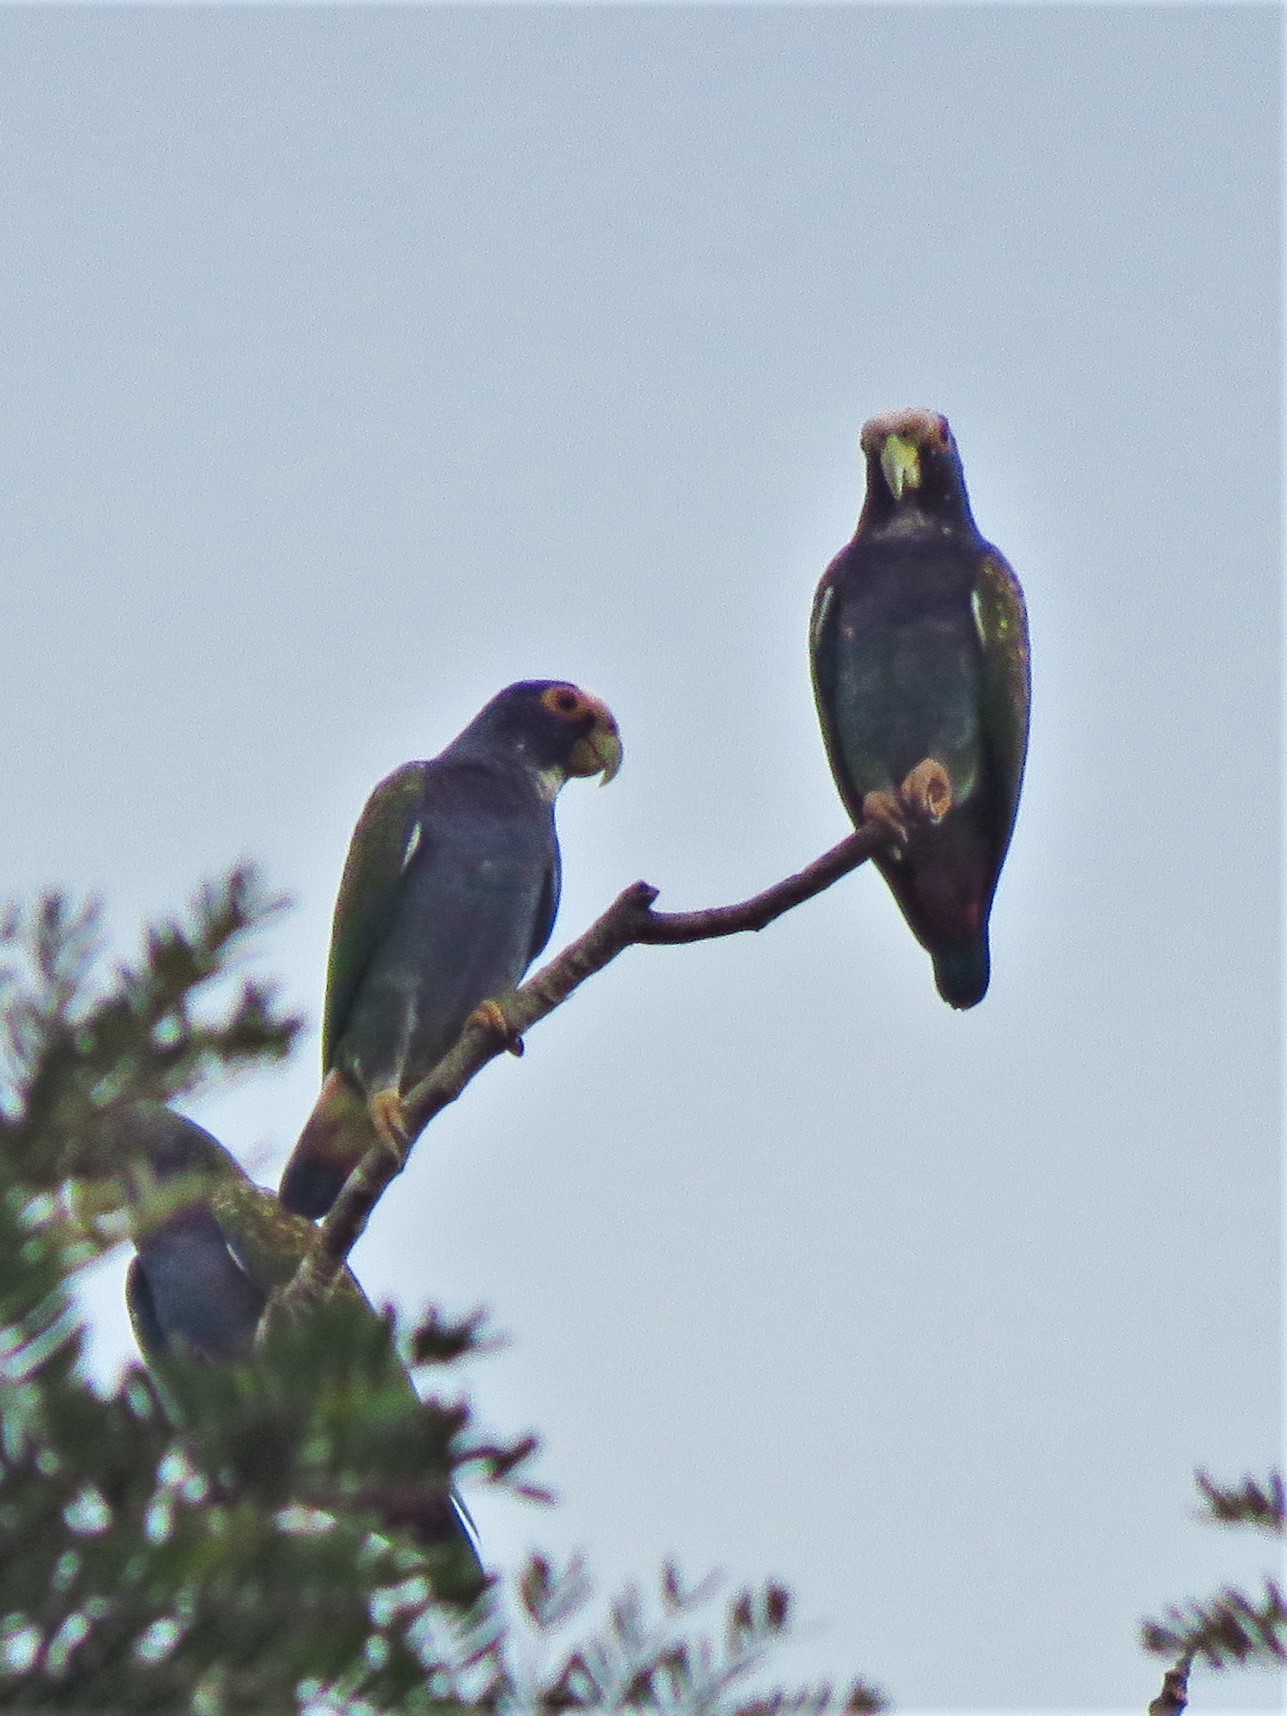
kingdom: Animalia
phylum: Chordata
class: Aves
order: Psittaciformes
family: Psittacidae
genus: Pionus
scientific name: Pionus senilis
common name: White-crowned parrot
